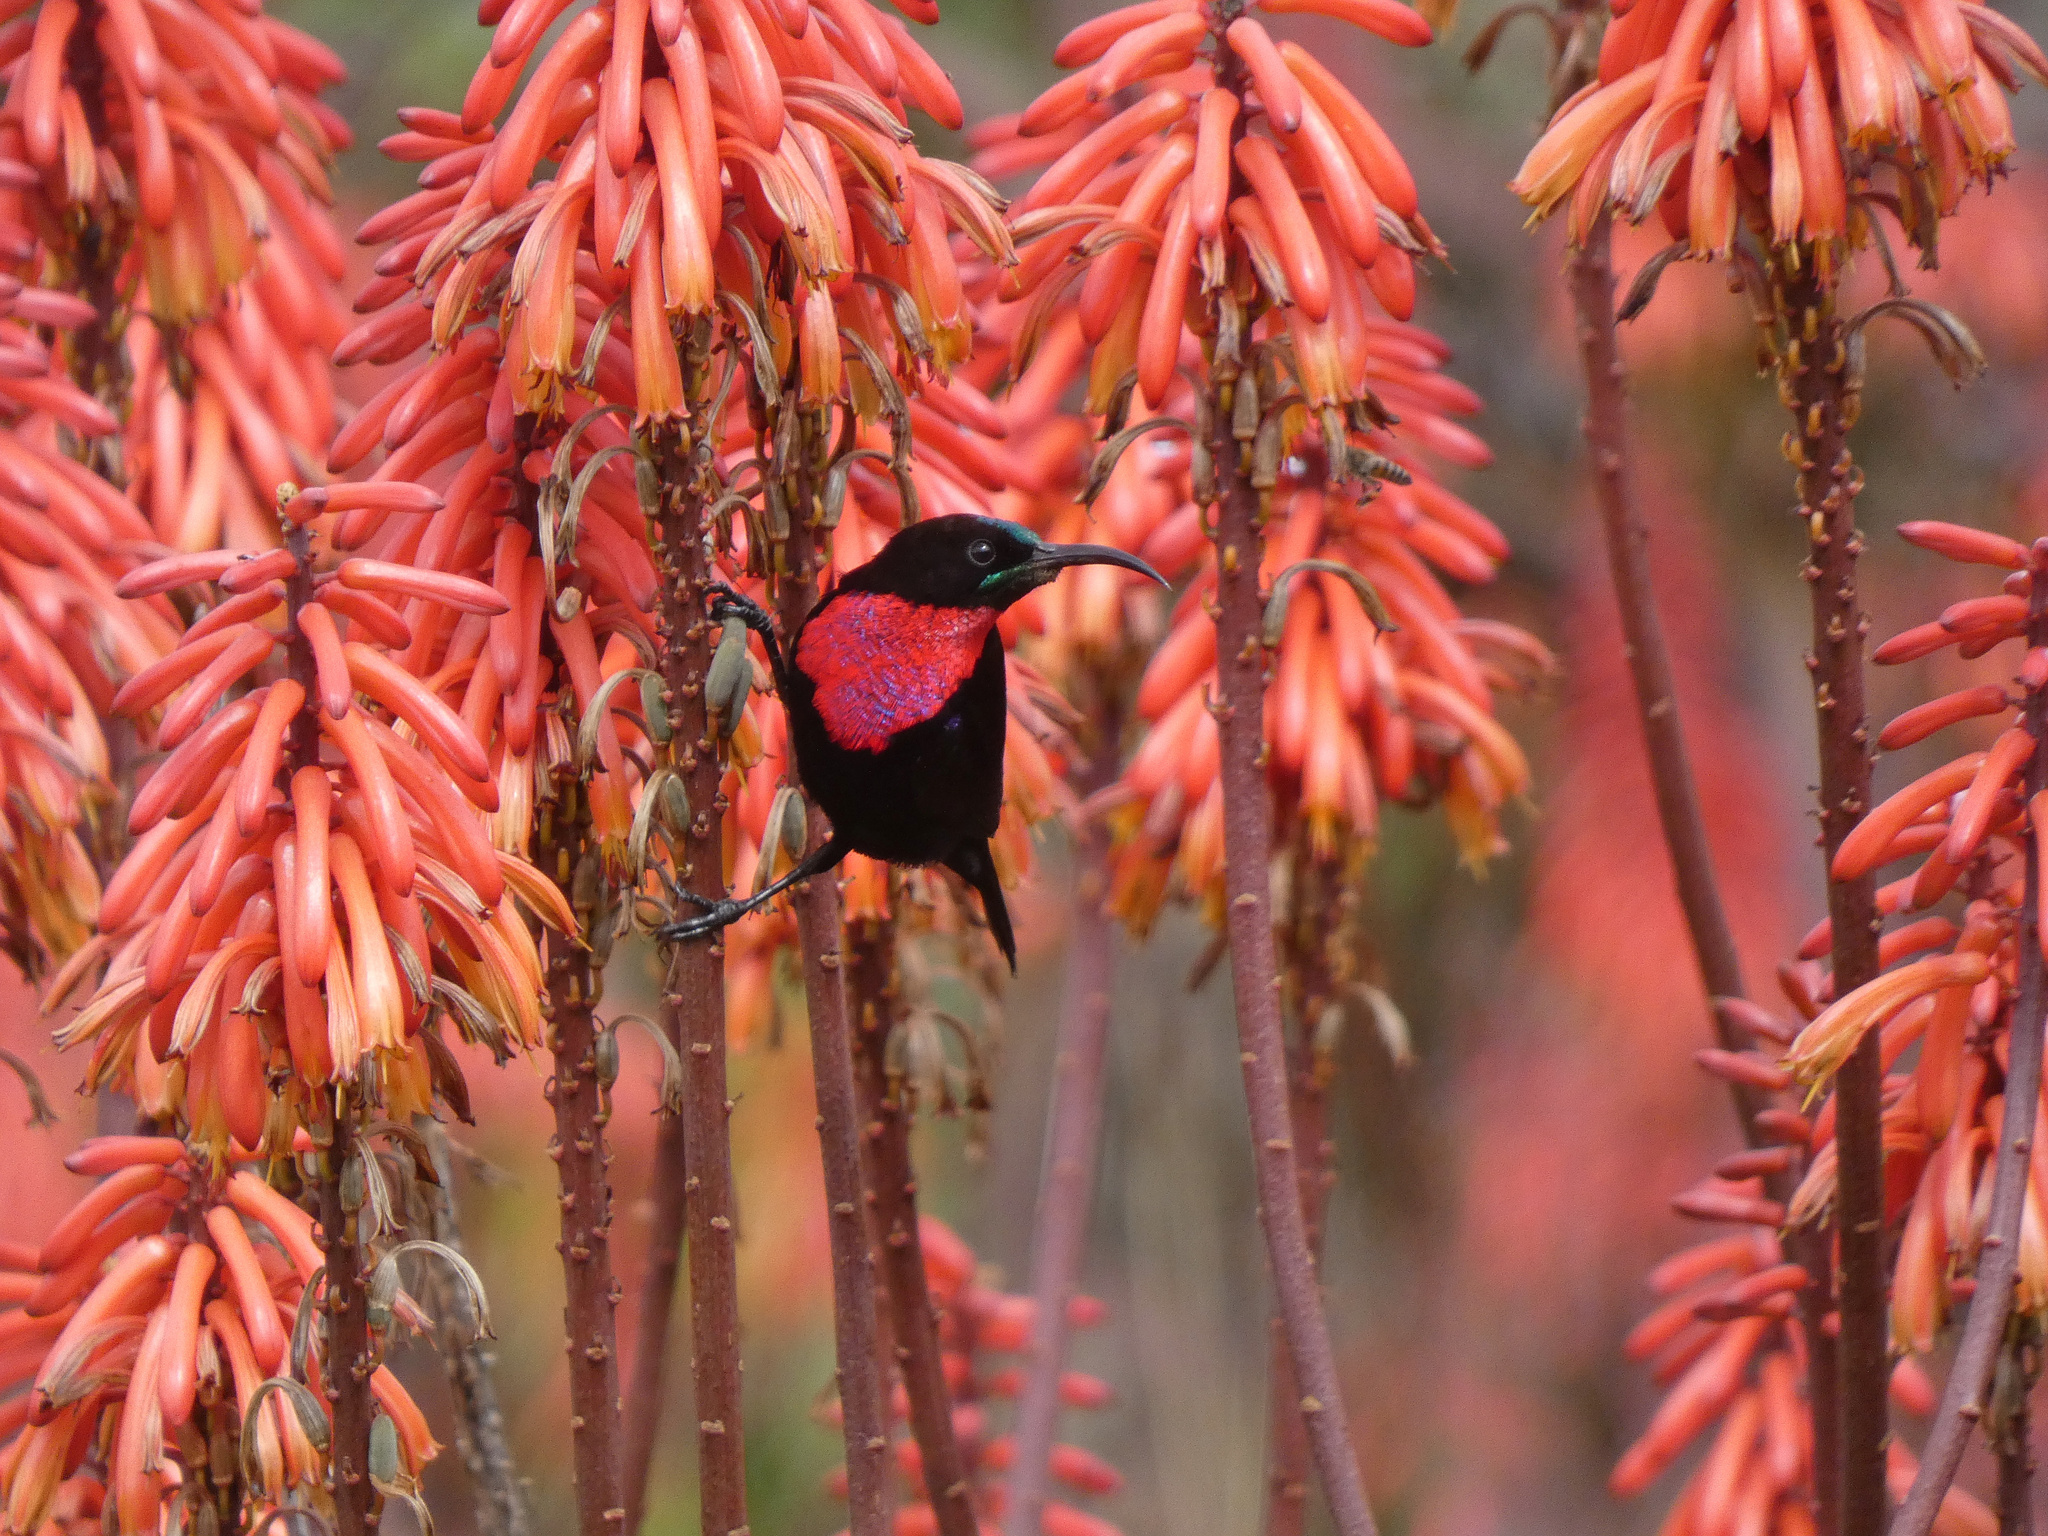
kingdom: Animalia
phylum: Chordata
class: Aves
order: Passeriformes
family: Nectariniidae
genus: Chalcomitra
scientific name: Chalcomitra senegalensis
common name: Scarlet-chested sunbird
